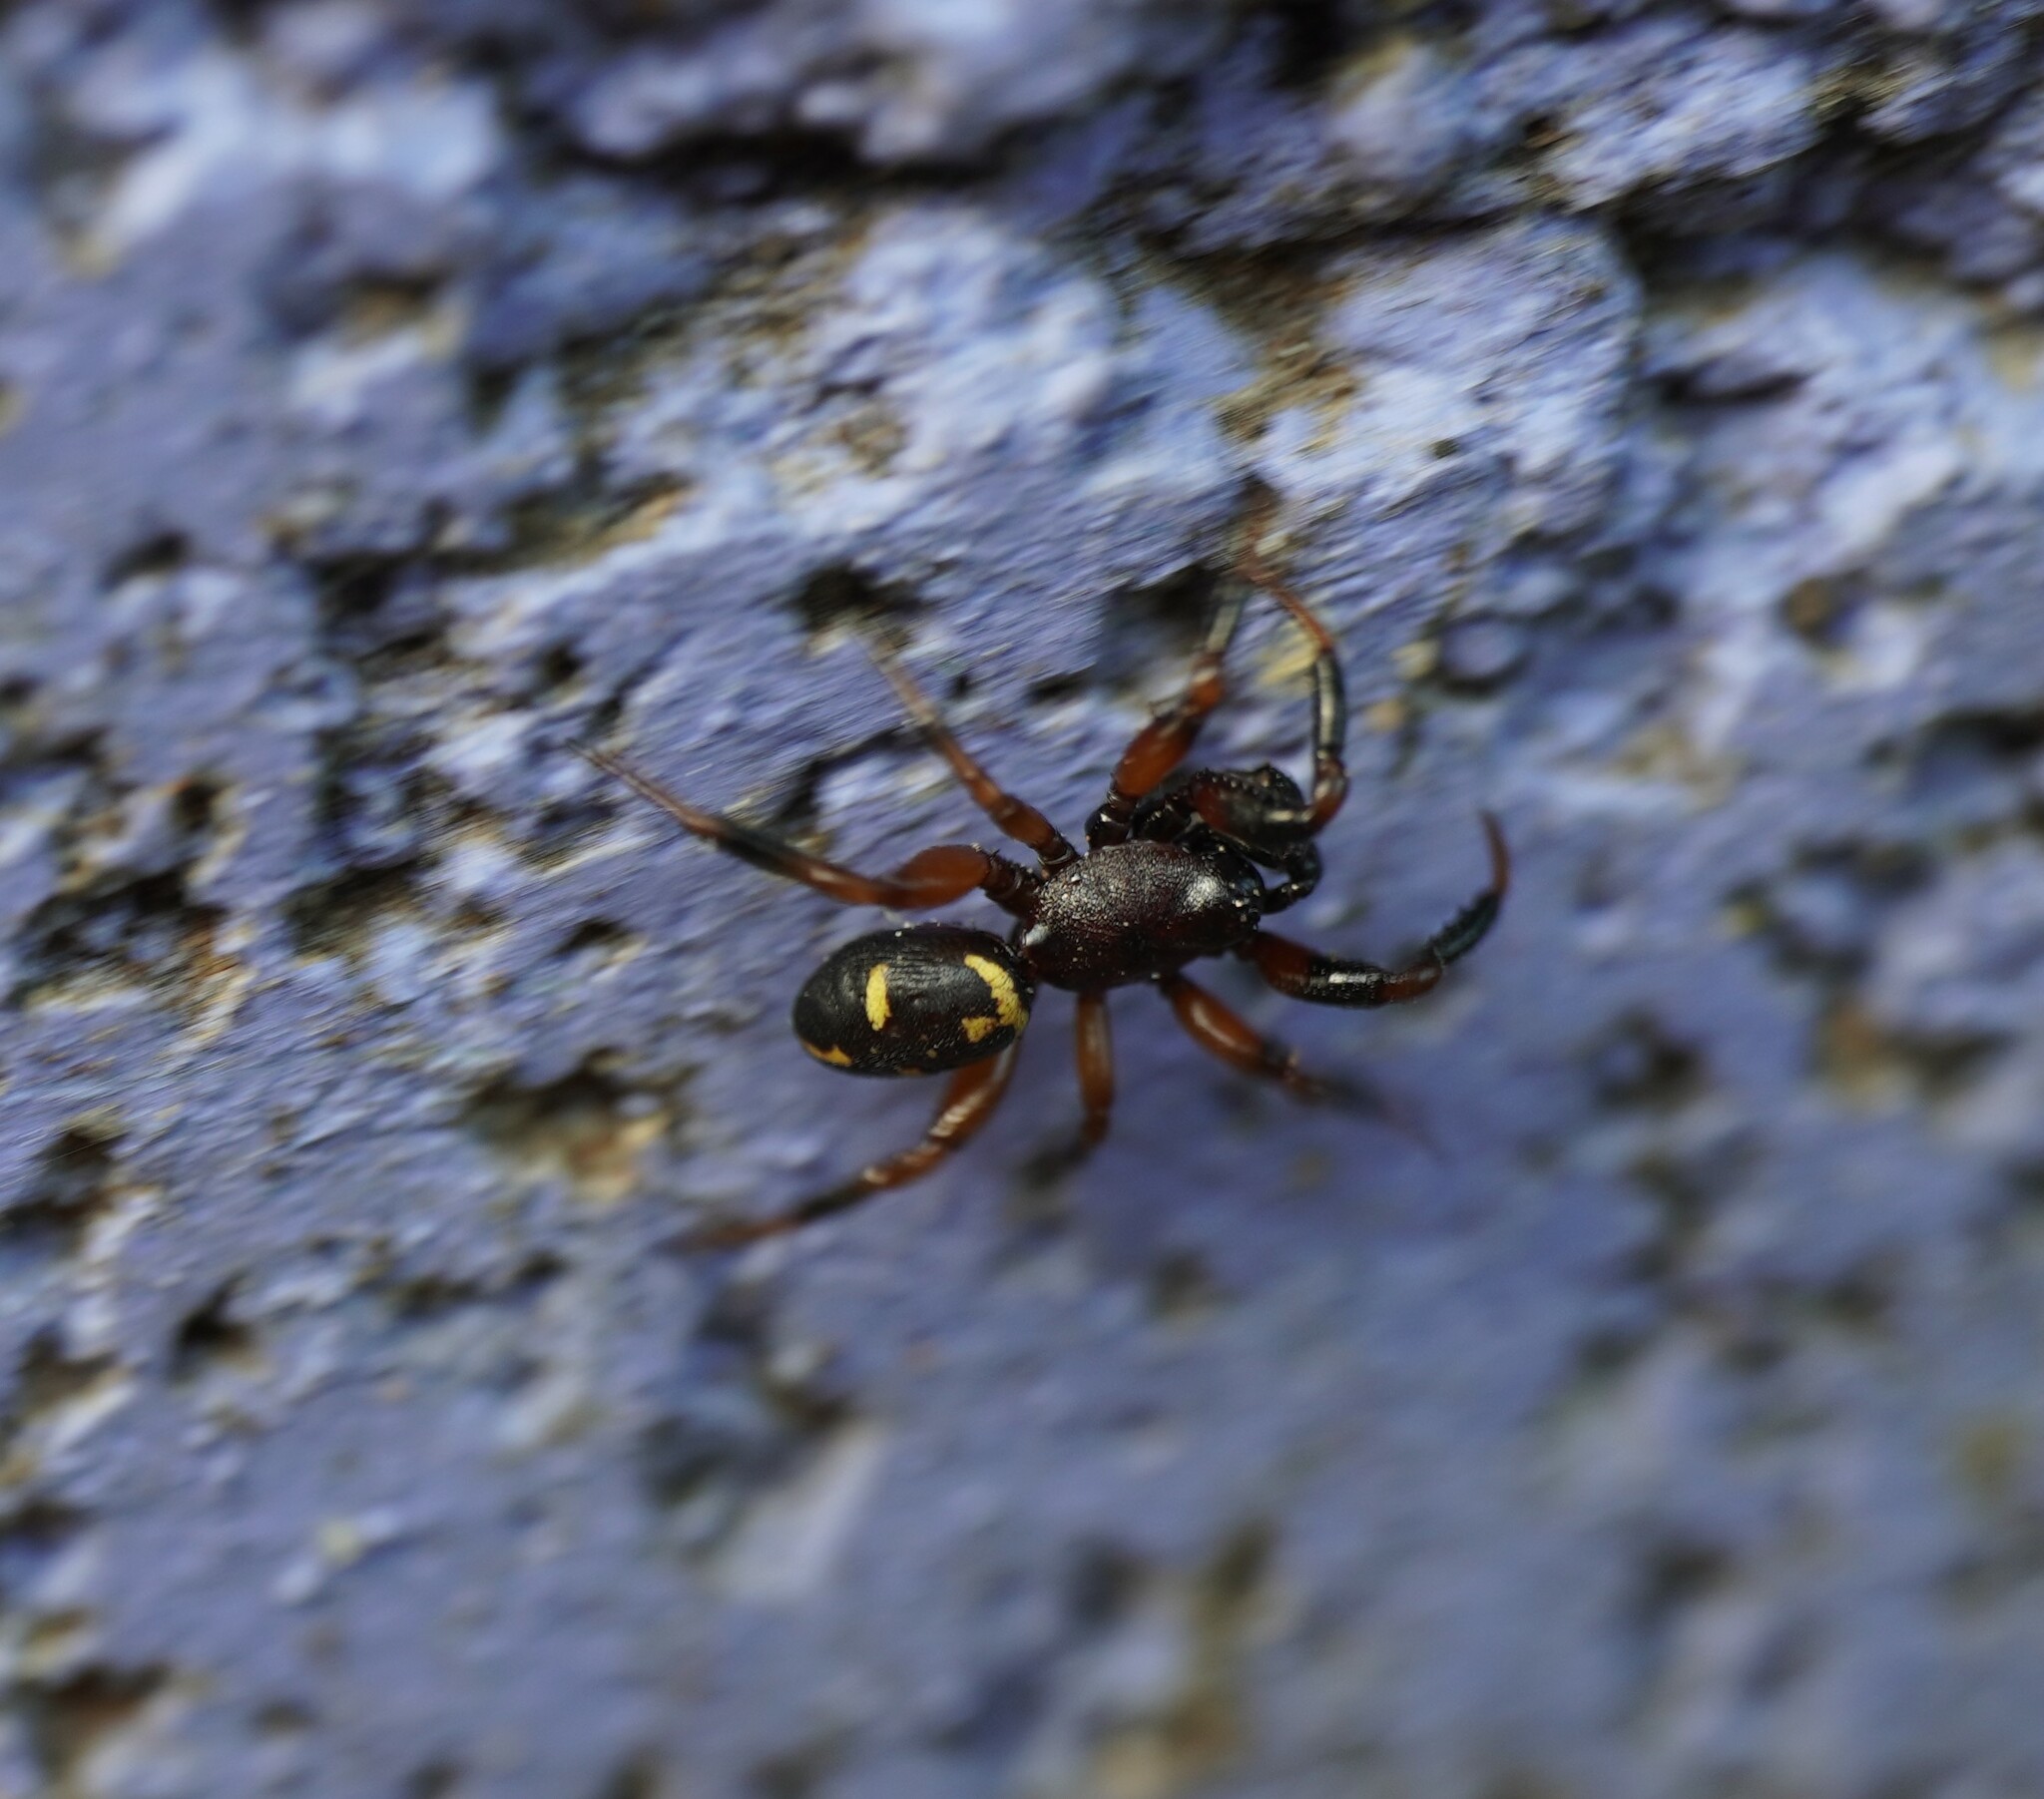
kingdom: Animalia
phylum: Arthropoda
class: Arachnida
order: Araneae
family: Theridiidae
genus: Asagena
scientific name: Asagena phalerata
